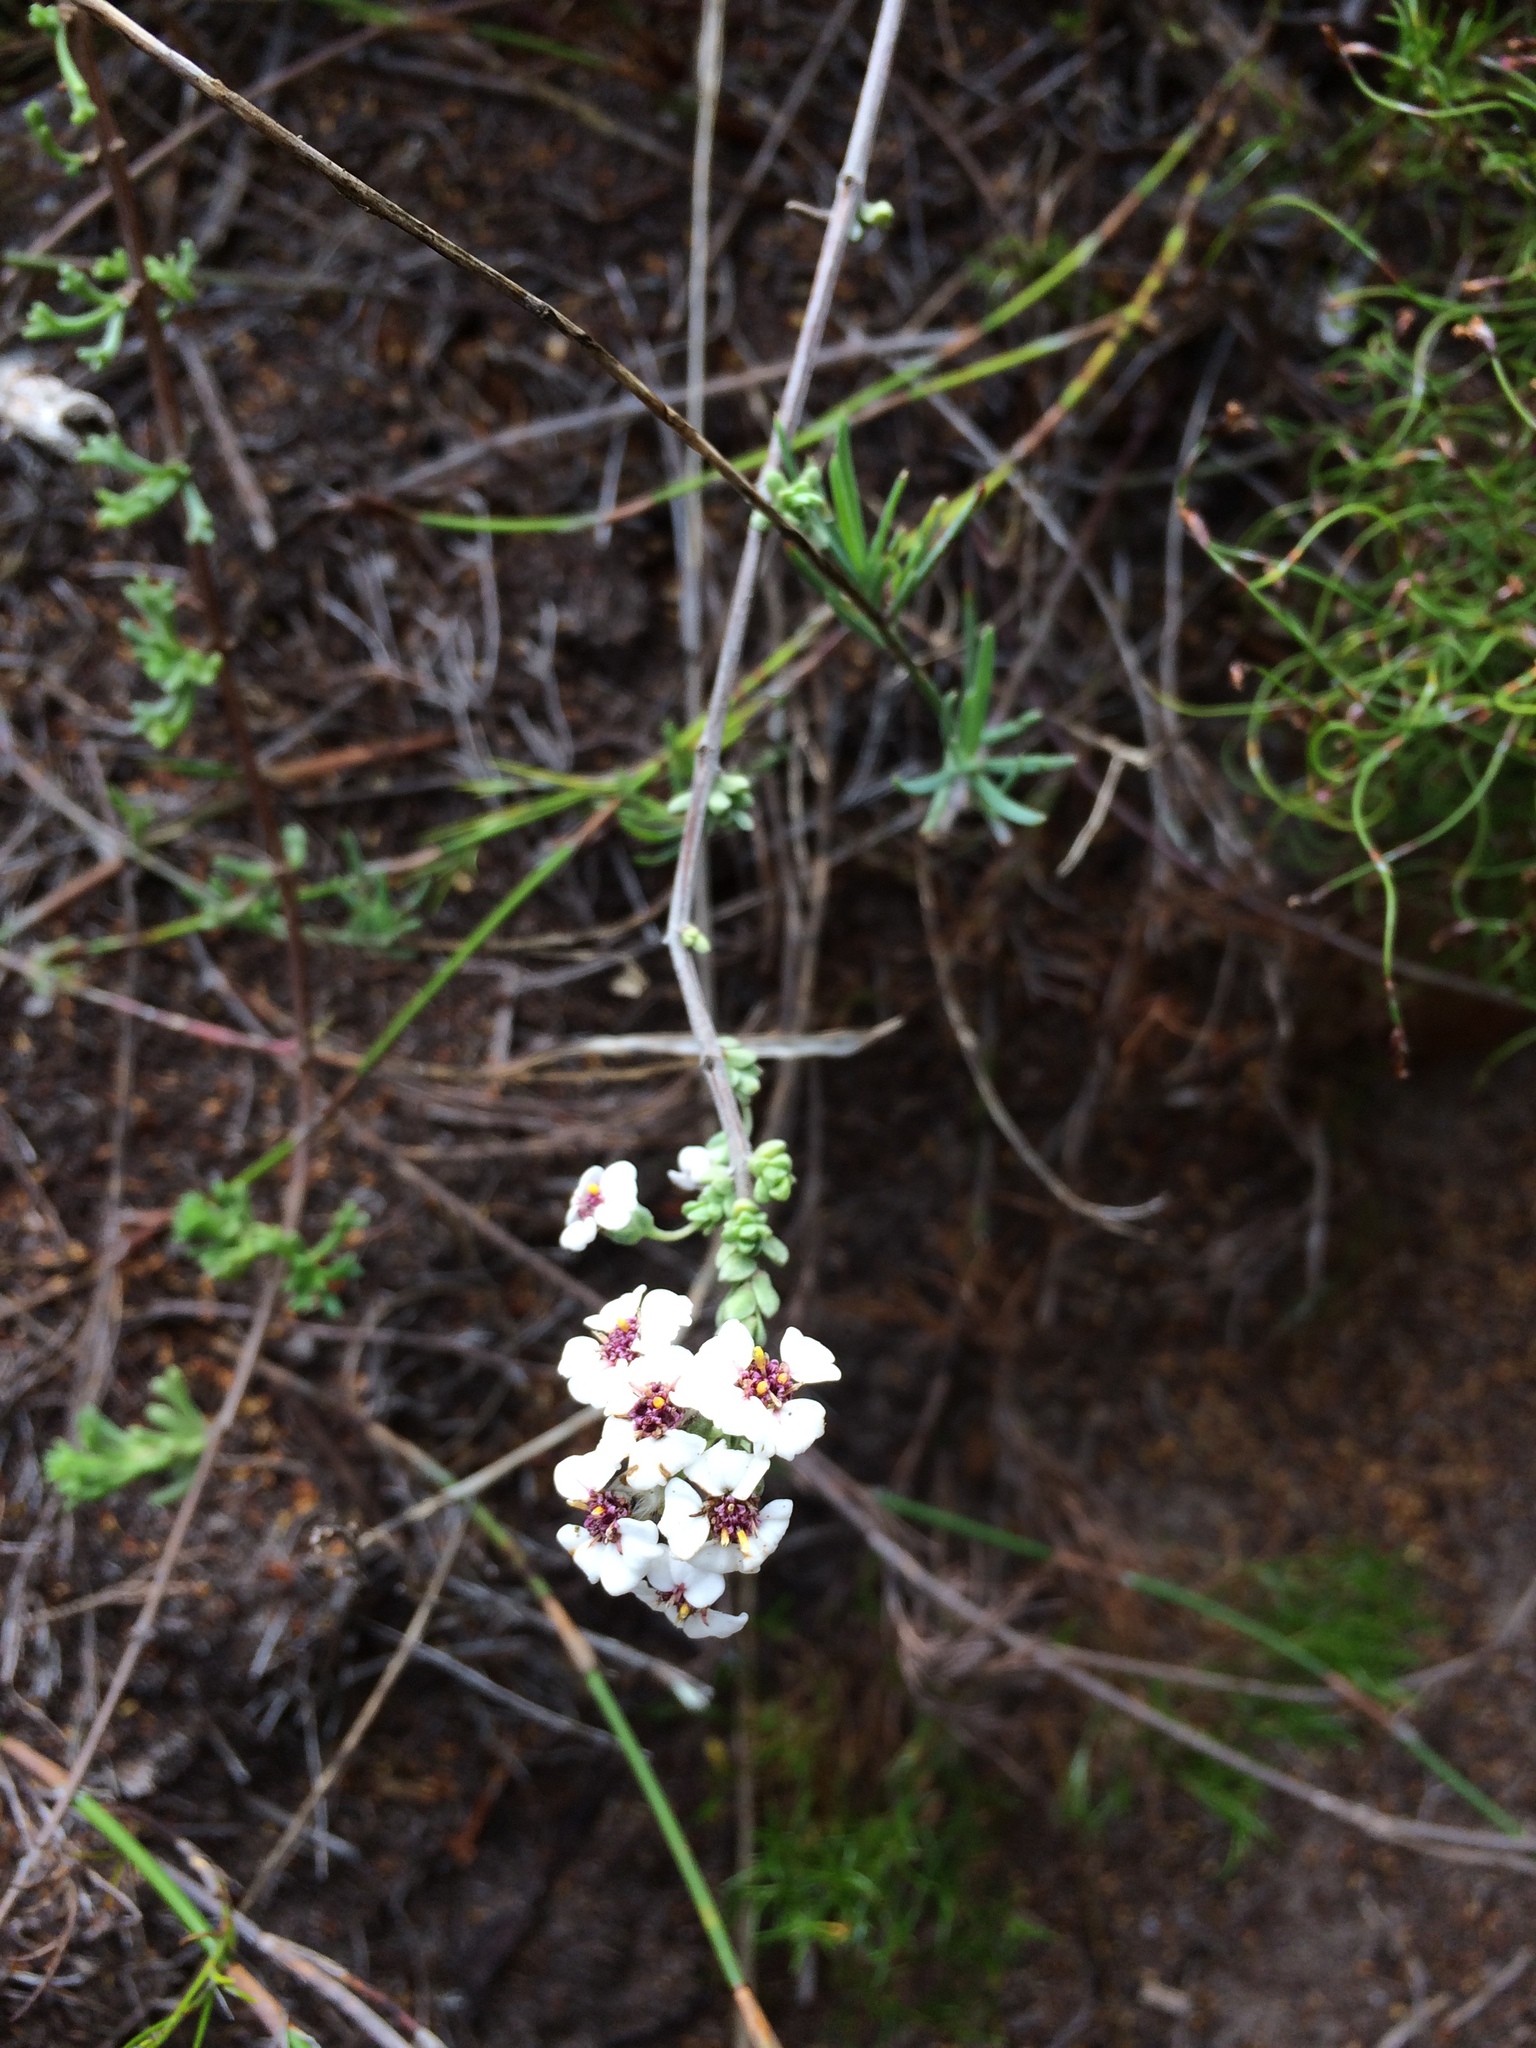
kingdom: Plantae
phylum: Tracheophyta
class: Magnoliopsida
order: Asterales
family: Asteraceae
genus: Eriocephalus
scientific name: Eriocephalus africanus
